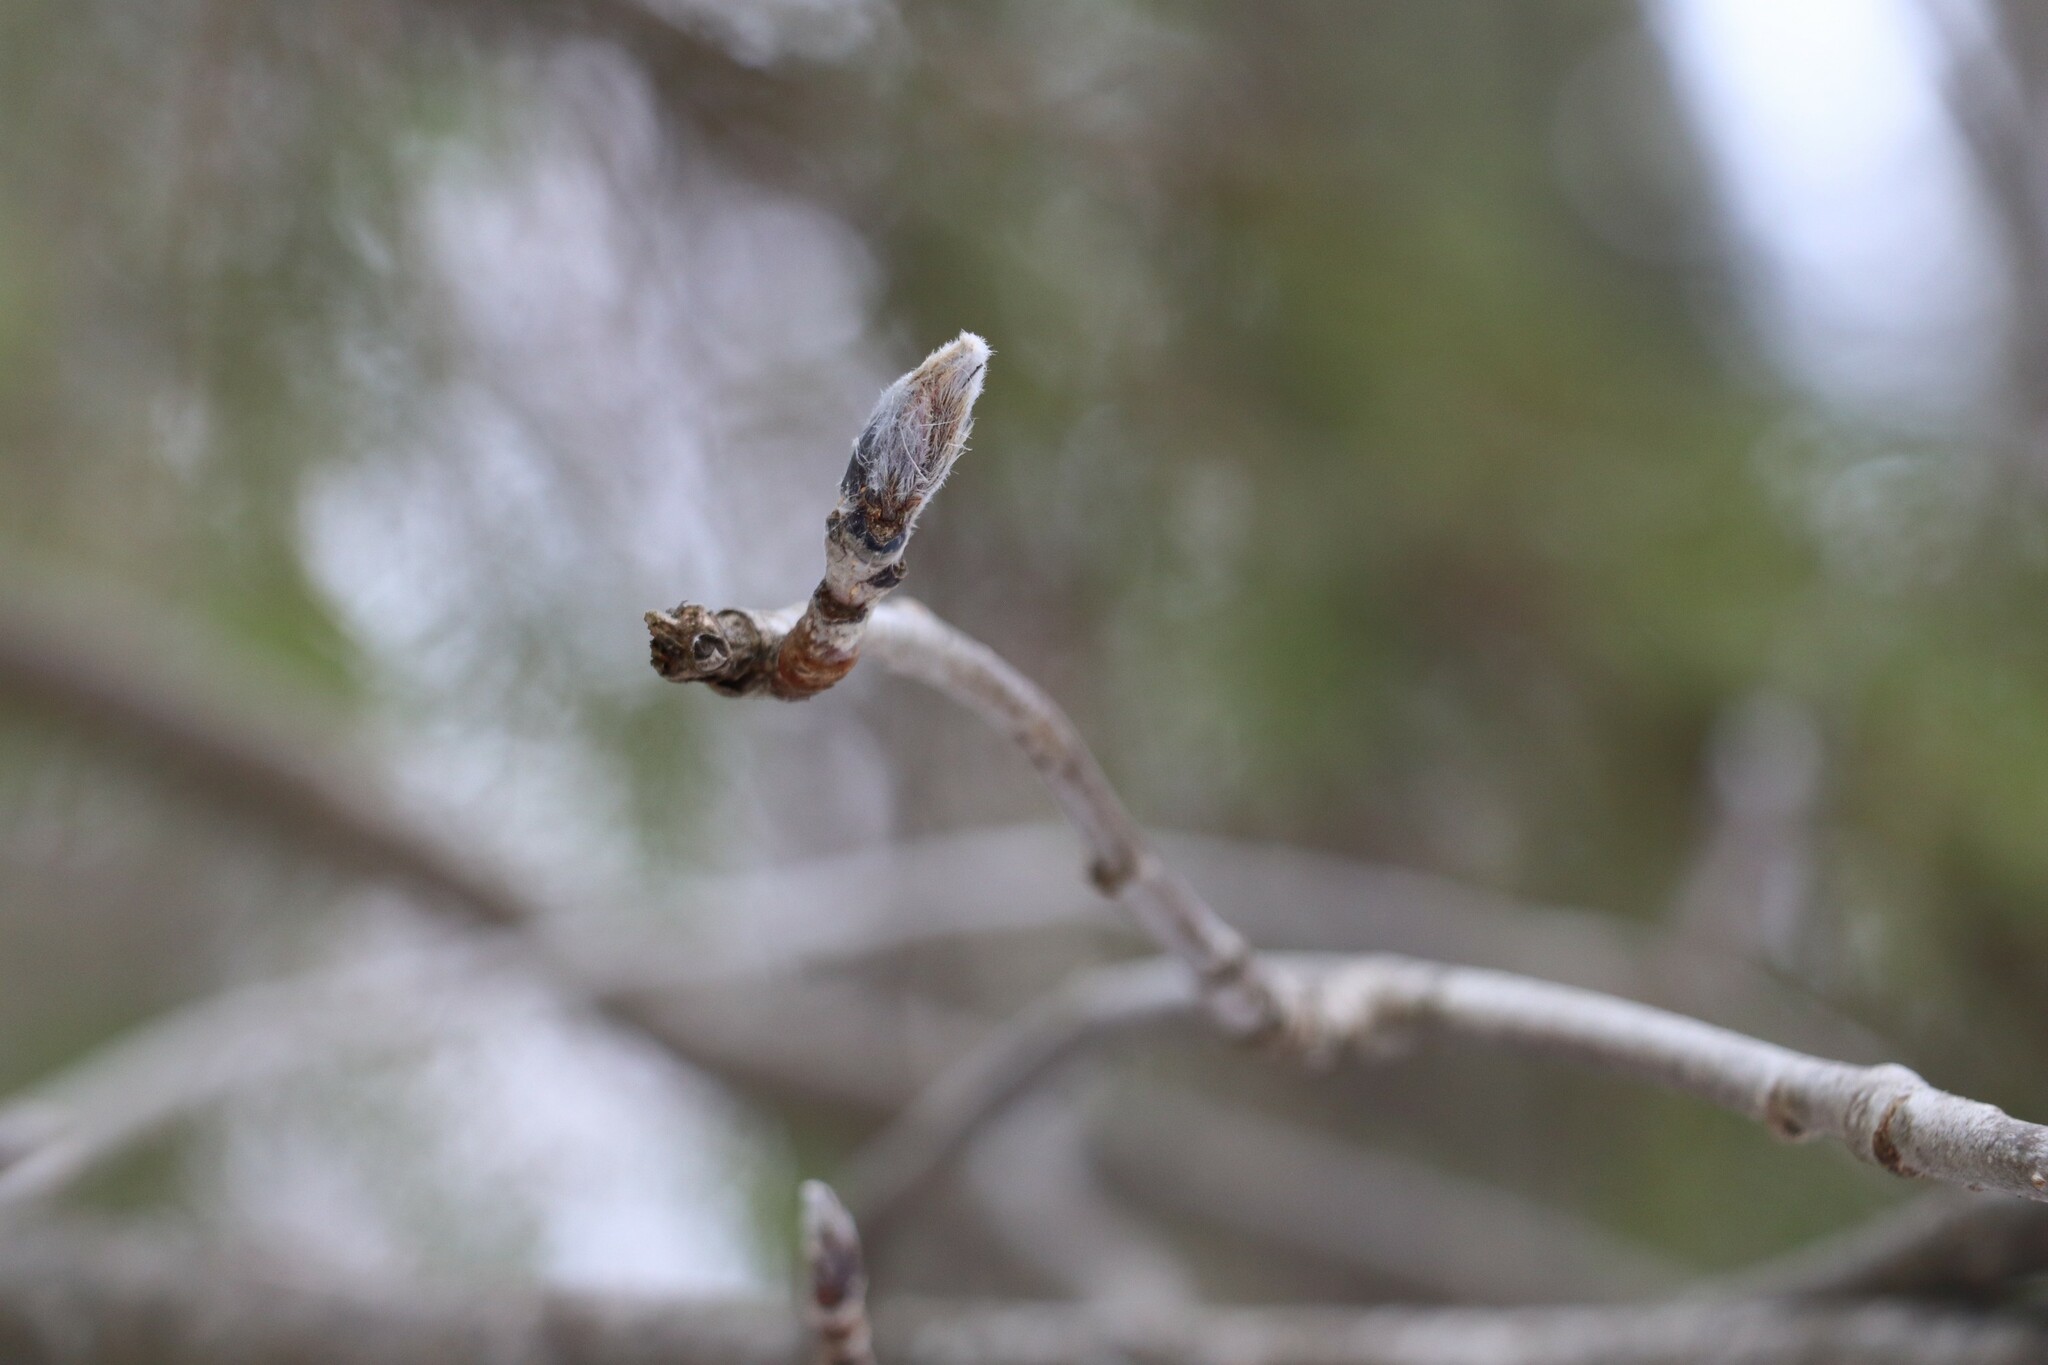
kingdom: Plantae
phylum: Tracheophyta
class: Magnoliopsida
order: Rosales
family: Rosaceae
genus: Sorbus
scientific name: Sorbus aucuparia
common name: Rowan
